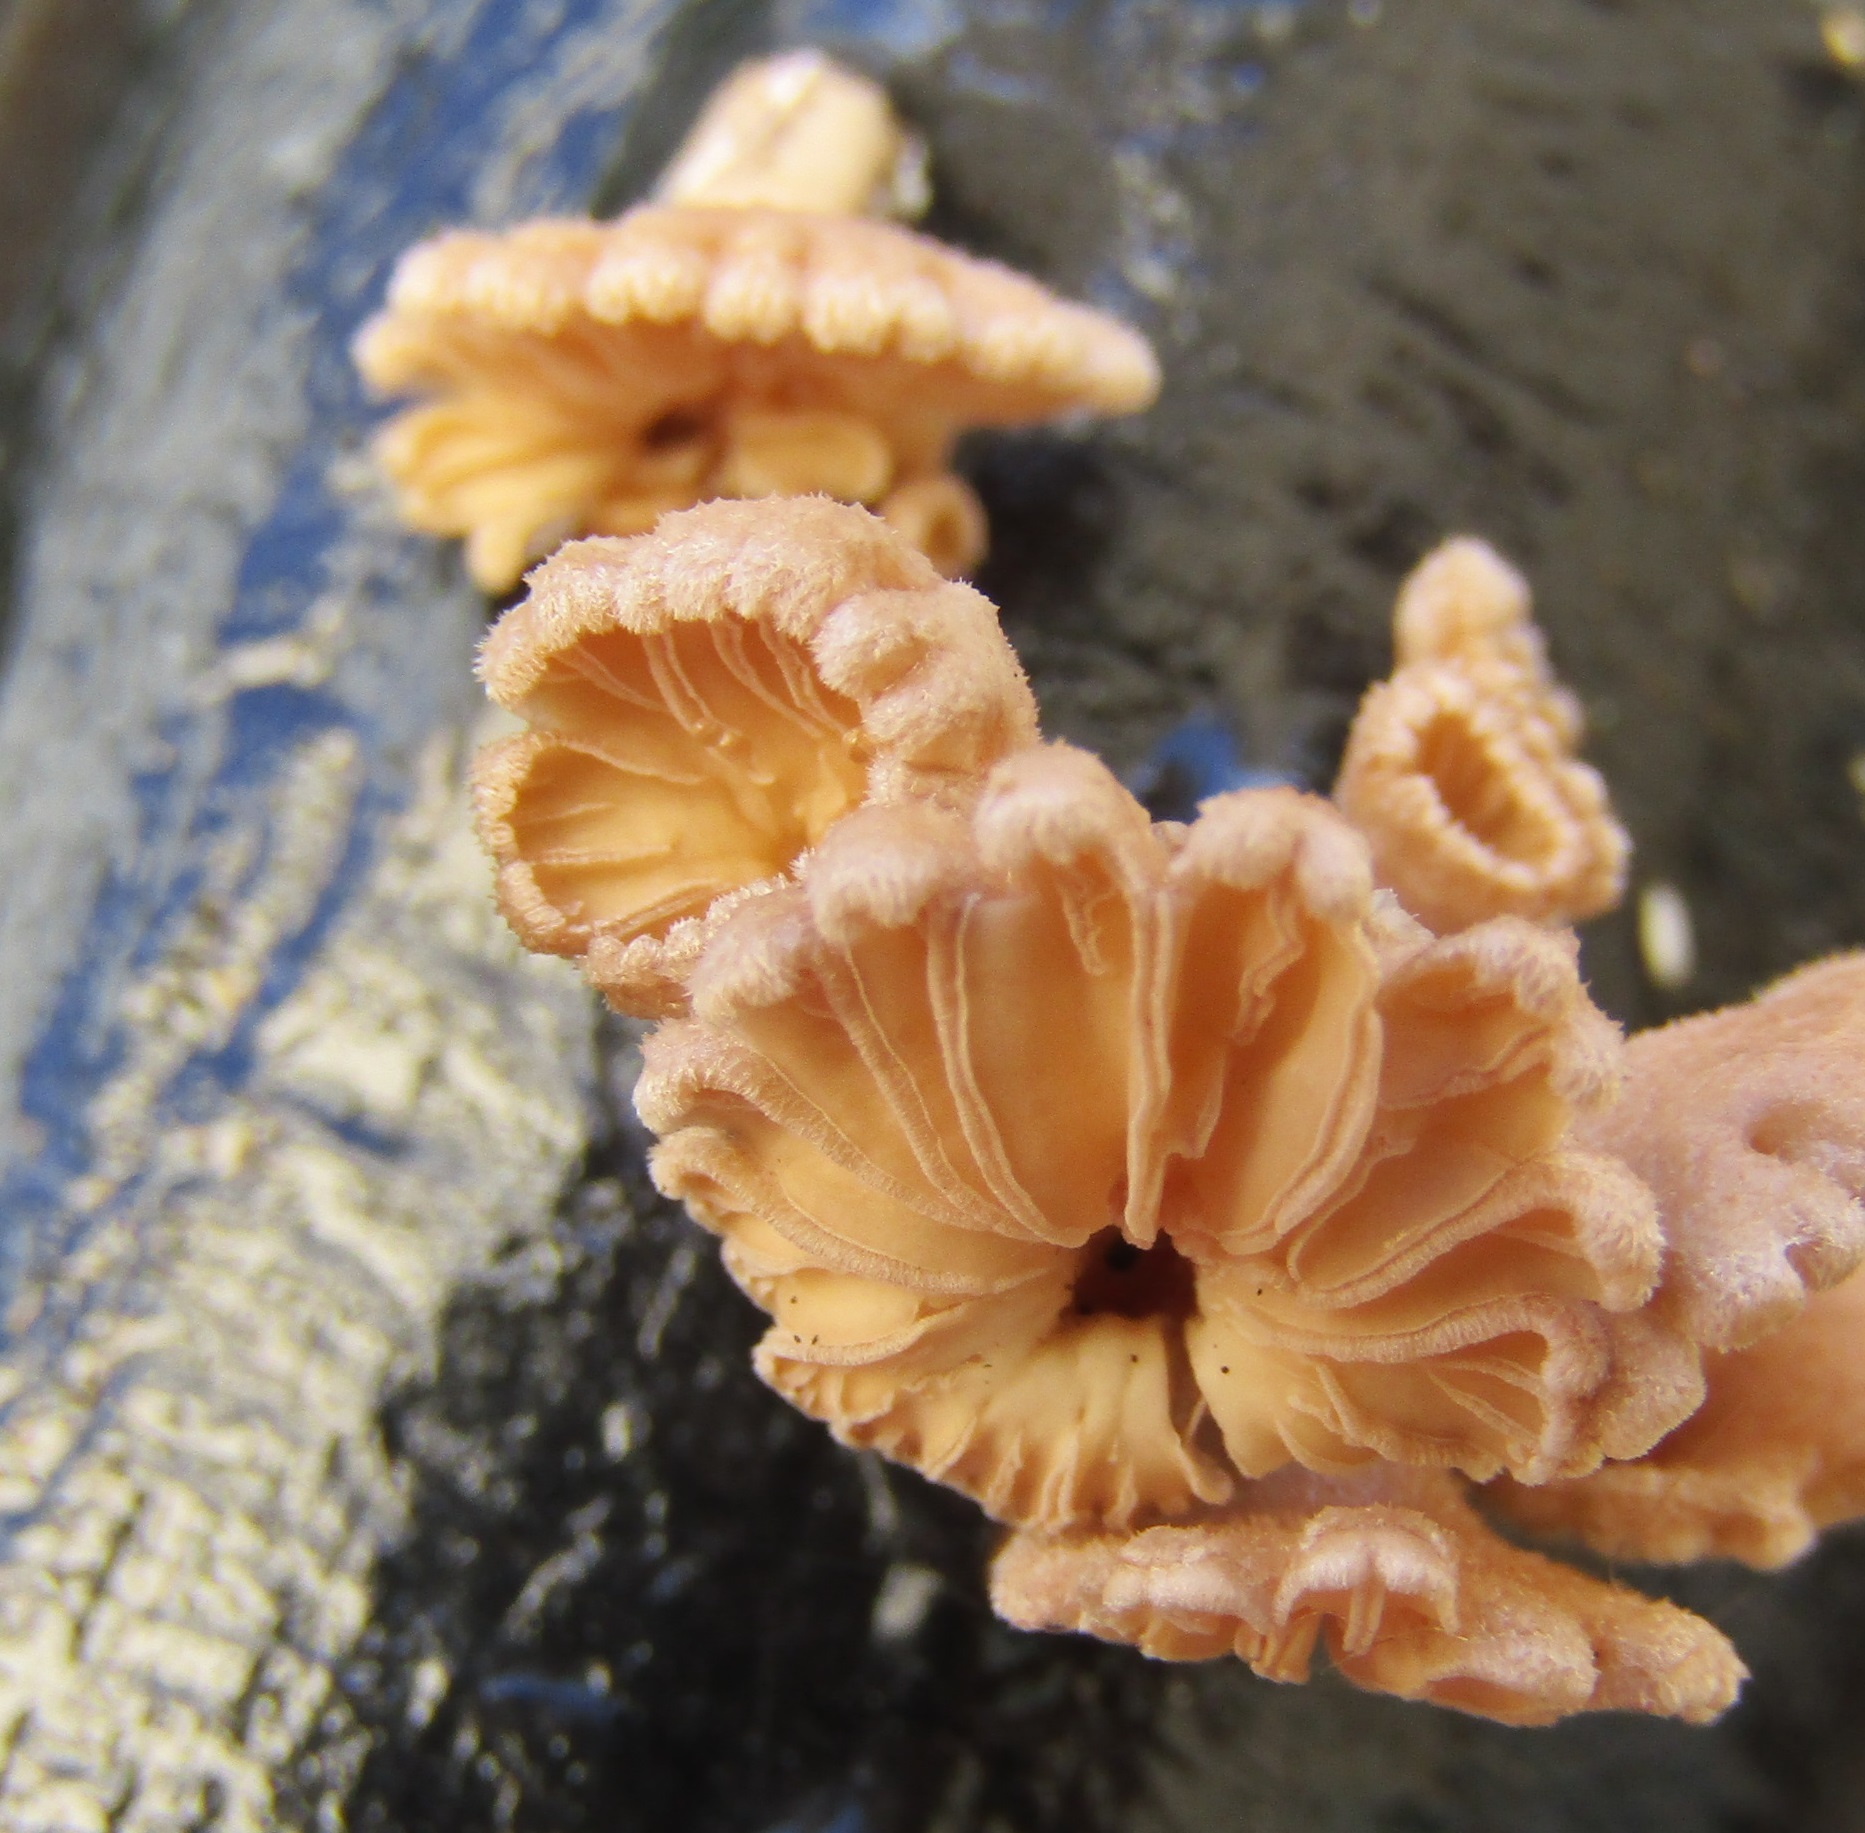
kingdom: Fungi
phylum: Basidiomycota
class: Agaricomycetes
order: Agaricales
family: Schizophyllaceae
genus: Schizophyllum
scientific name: Schizophyllum commune
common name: Common porecrust
